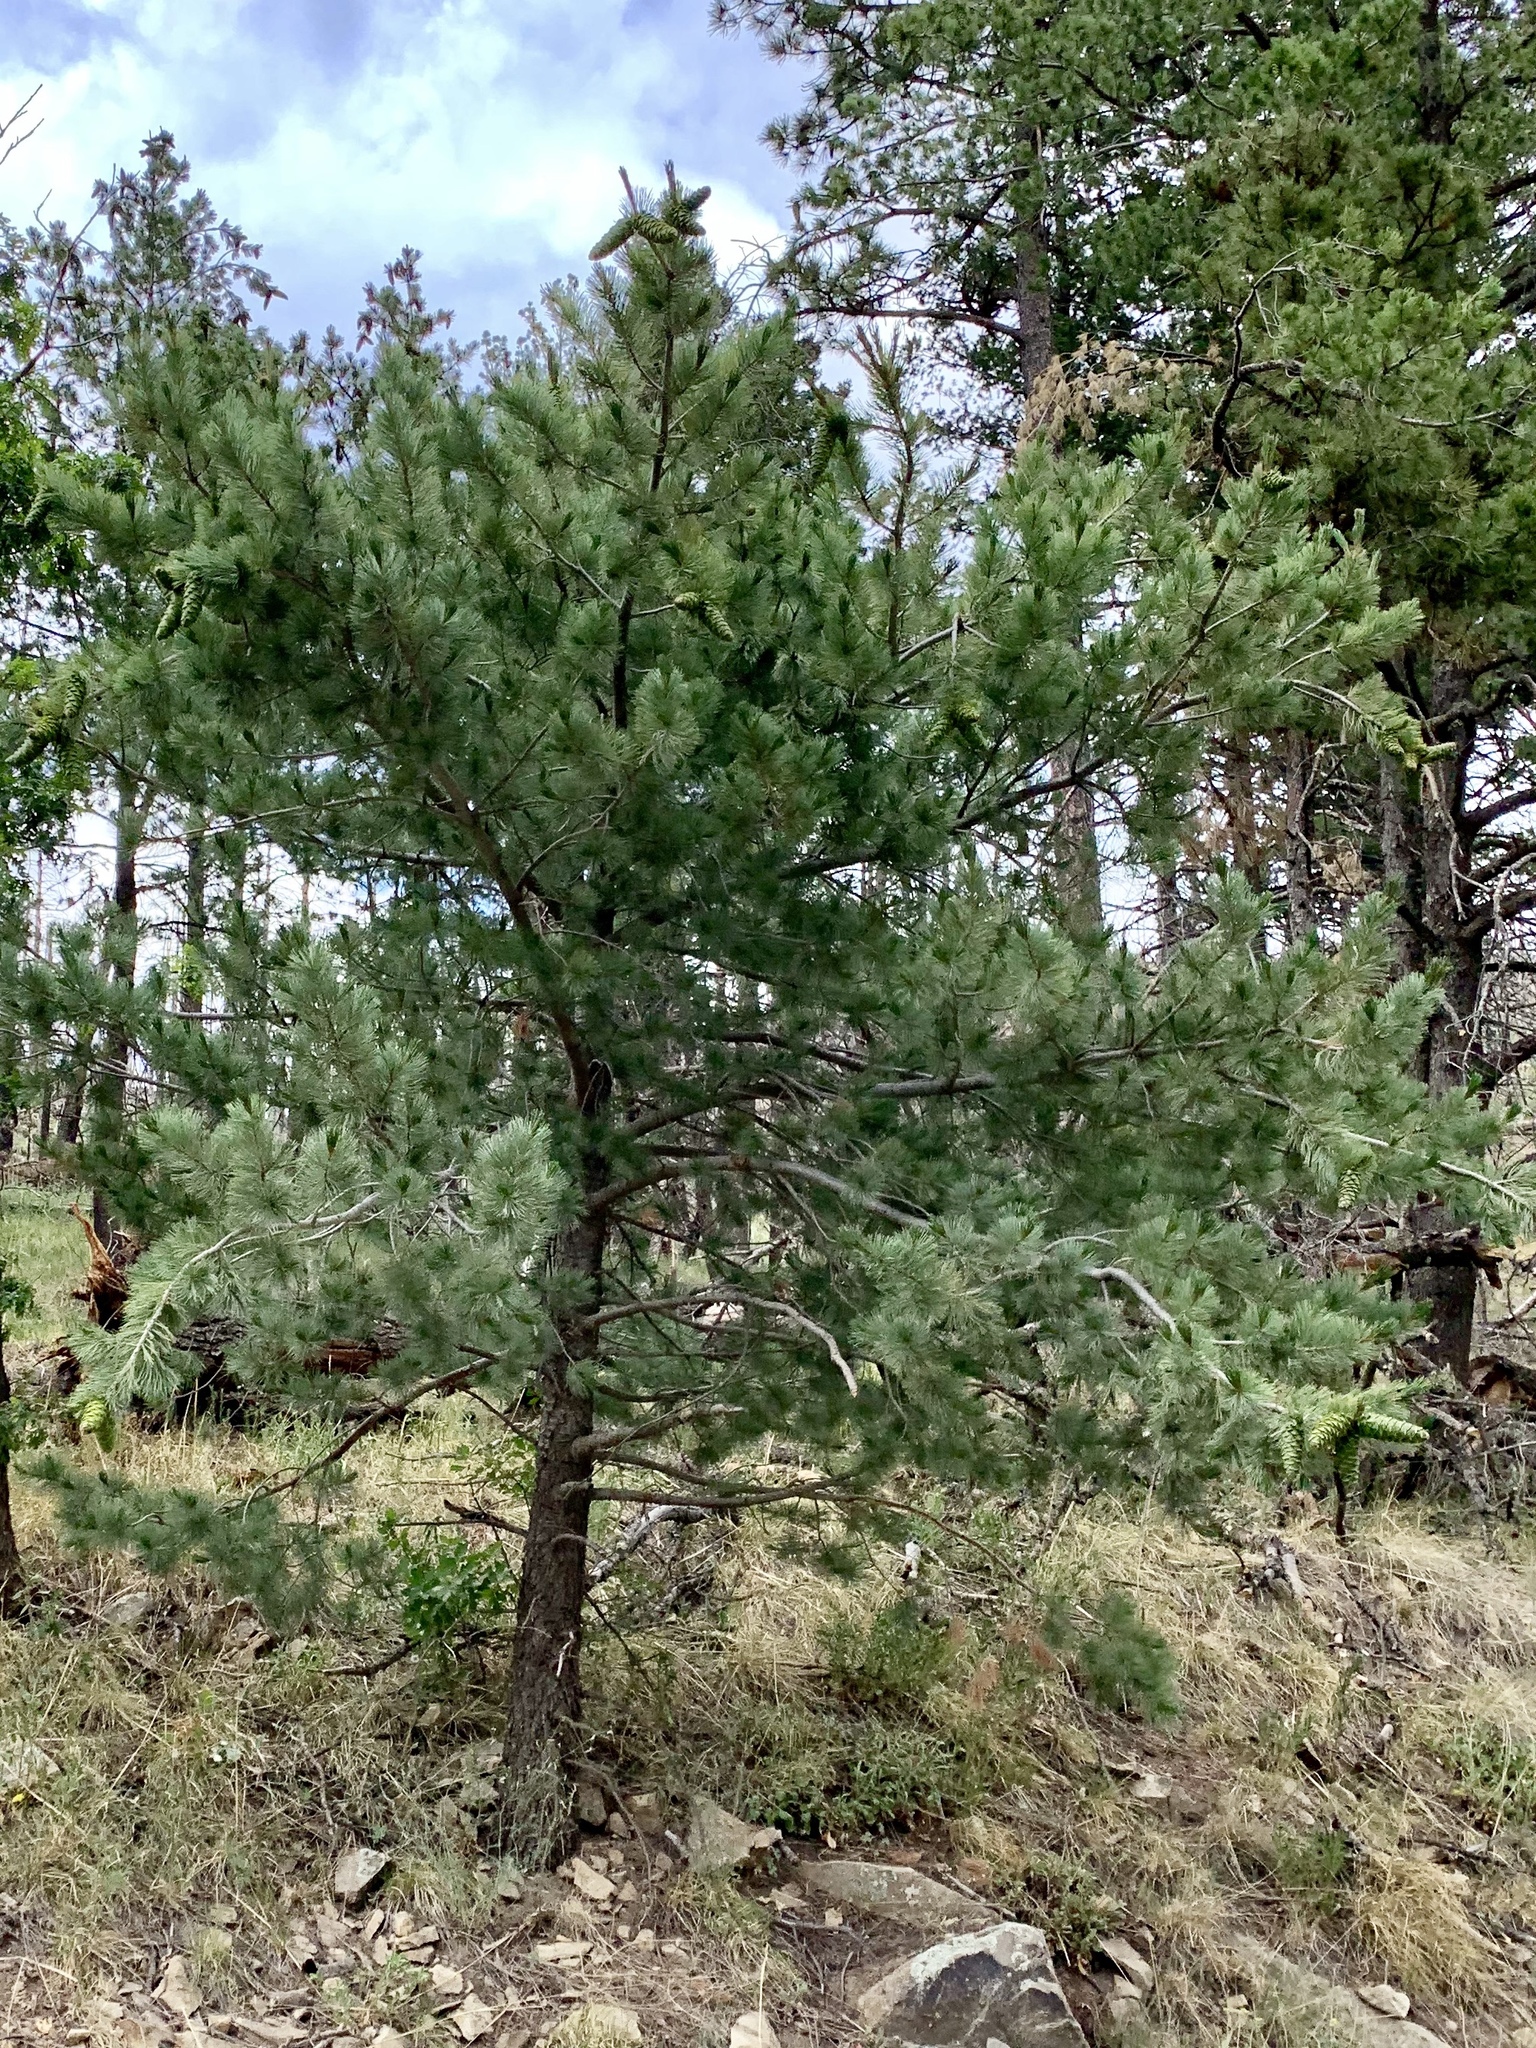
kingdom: Plantae
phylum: Tracheophyta
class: Pinopsida
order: Pinales
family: Pinaceae
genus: Pinus
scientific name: Pinus strobiformis
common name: Southwestern white pine
